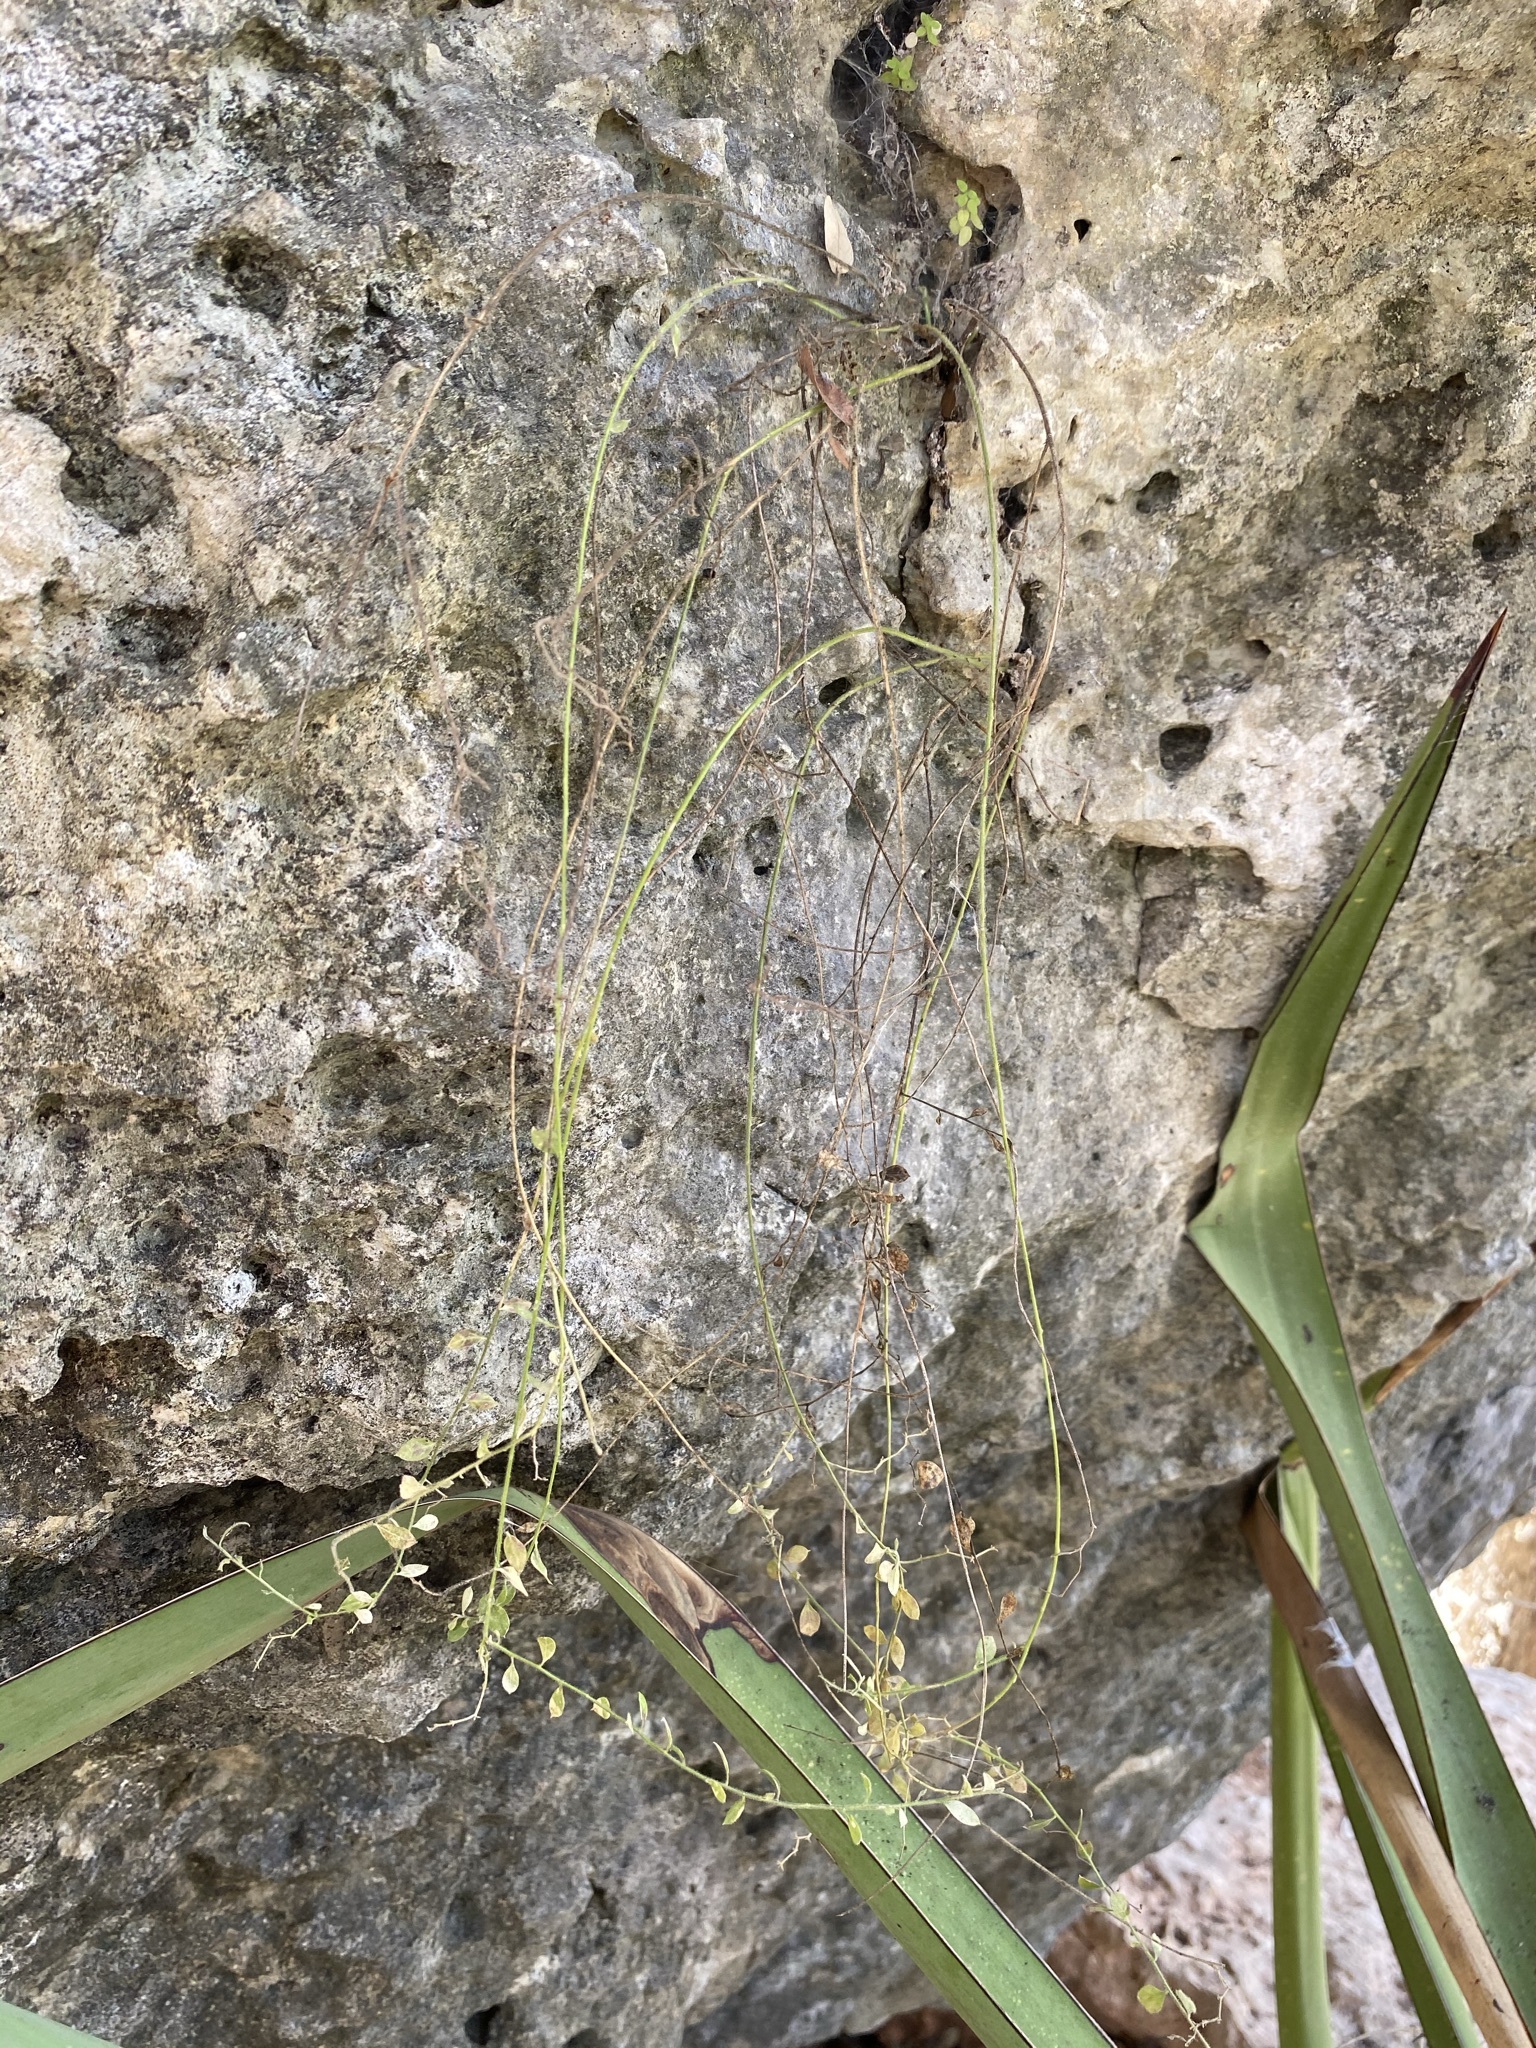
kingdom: Plantae
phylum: Tracheophyta
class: Magnoliopsida
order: Fabales
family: Polygalaceae
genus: Rhinotropis
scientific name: Rhinotropis lindheimeri
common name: Shrubby milkwort
